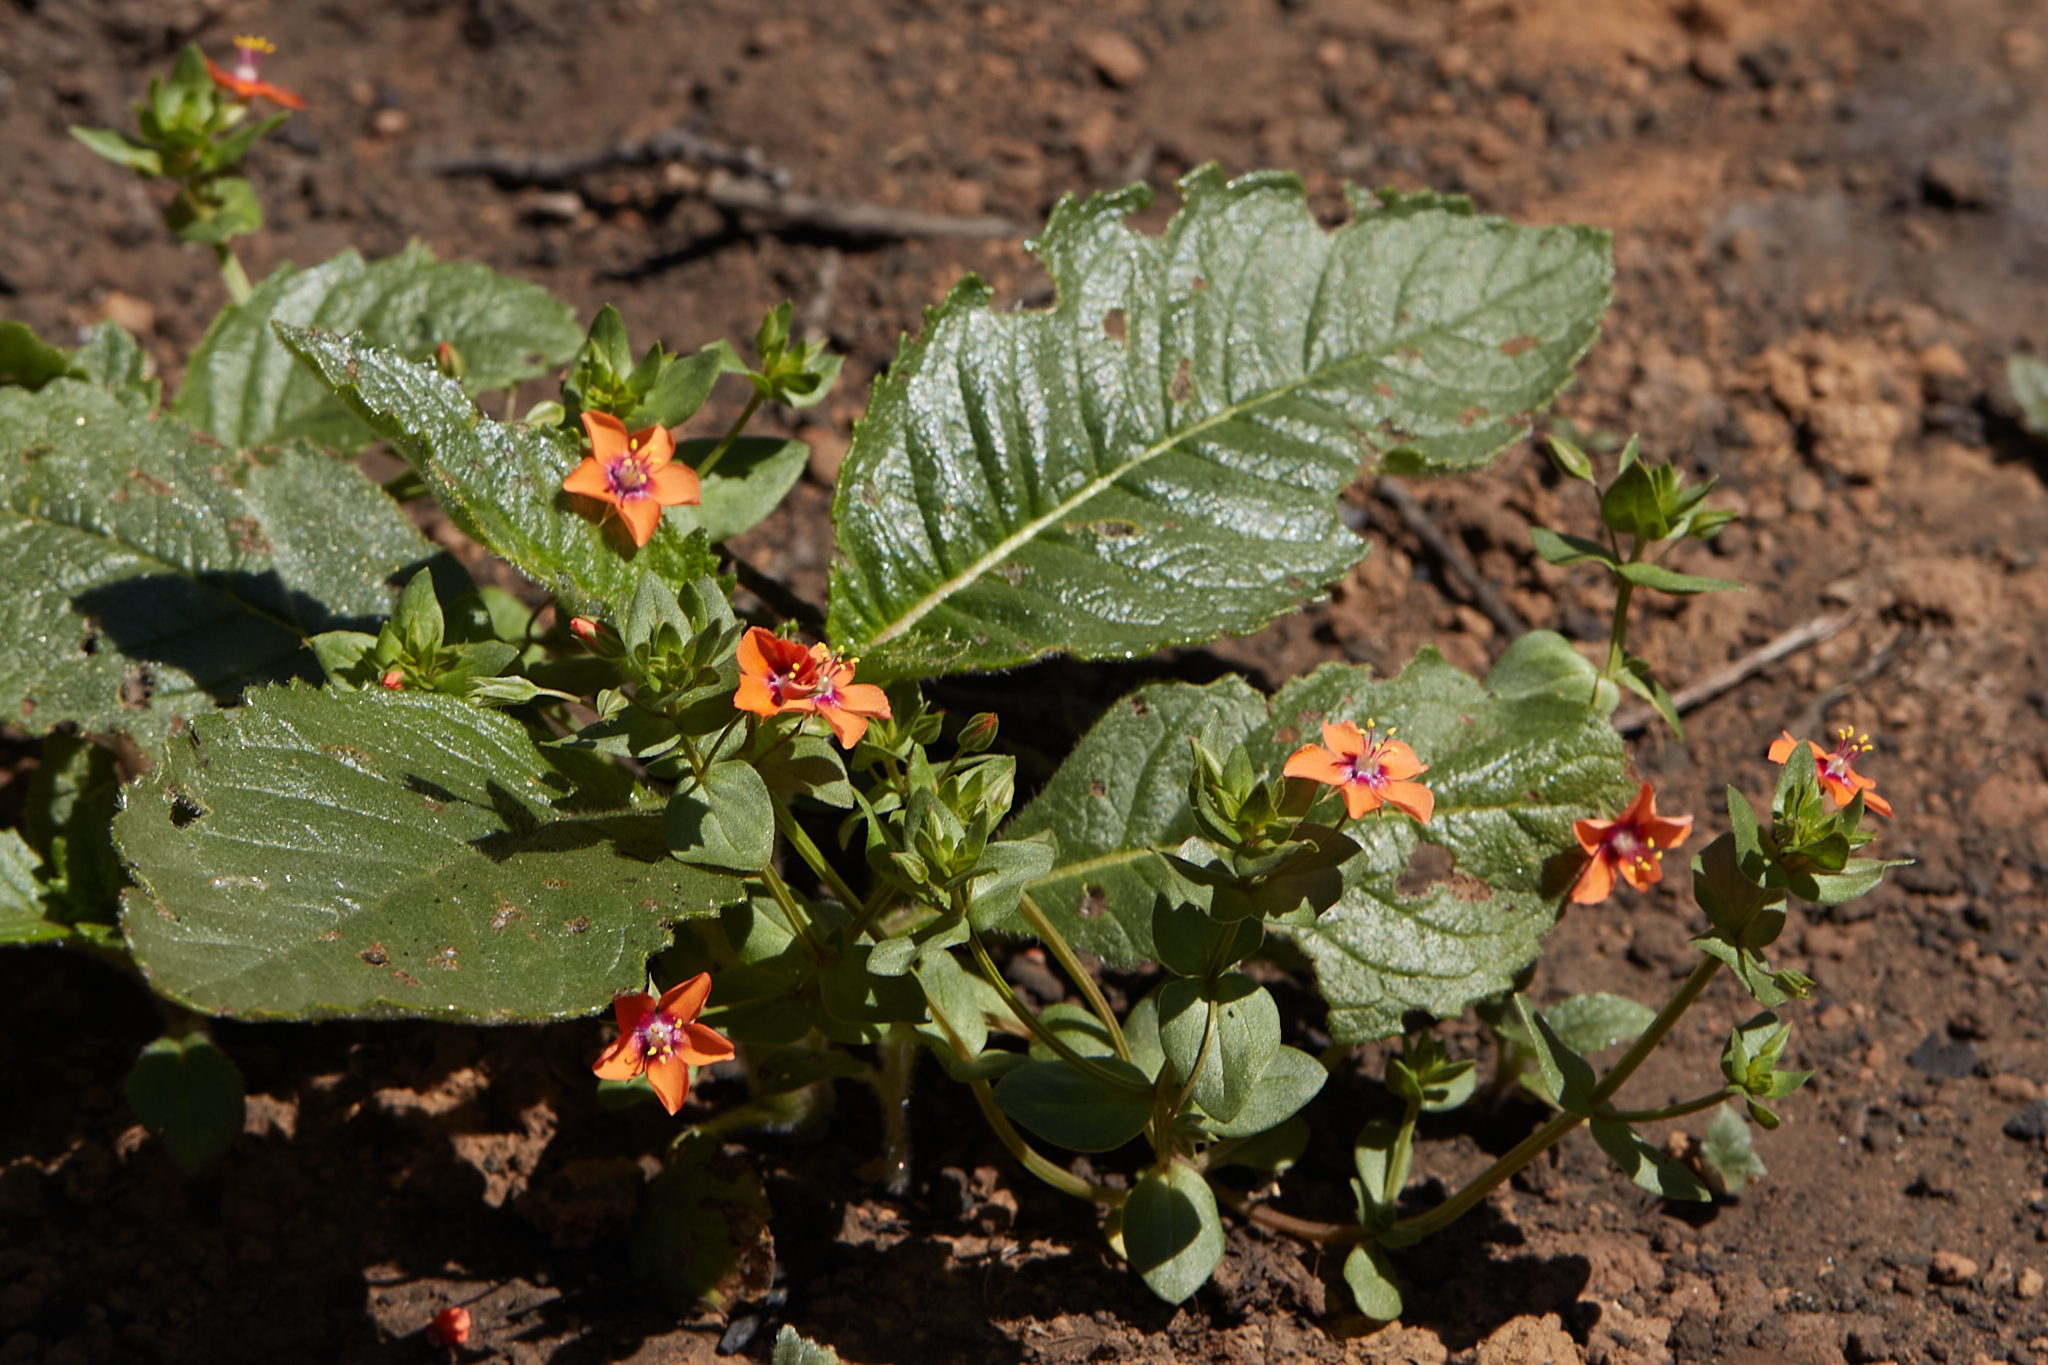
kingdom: Plantae
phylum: Tracheophyta
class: Magnoliopsida
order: Ericales
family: Primulaceae
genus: Lysimachia
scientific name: Lysimachia arvensis
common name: Scarlet pimpernel
